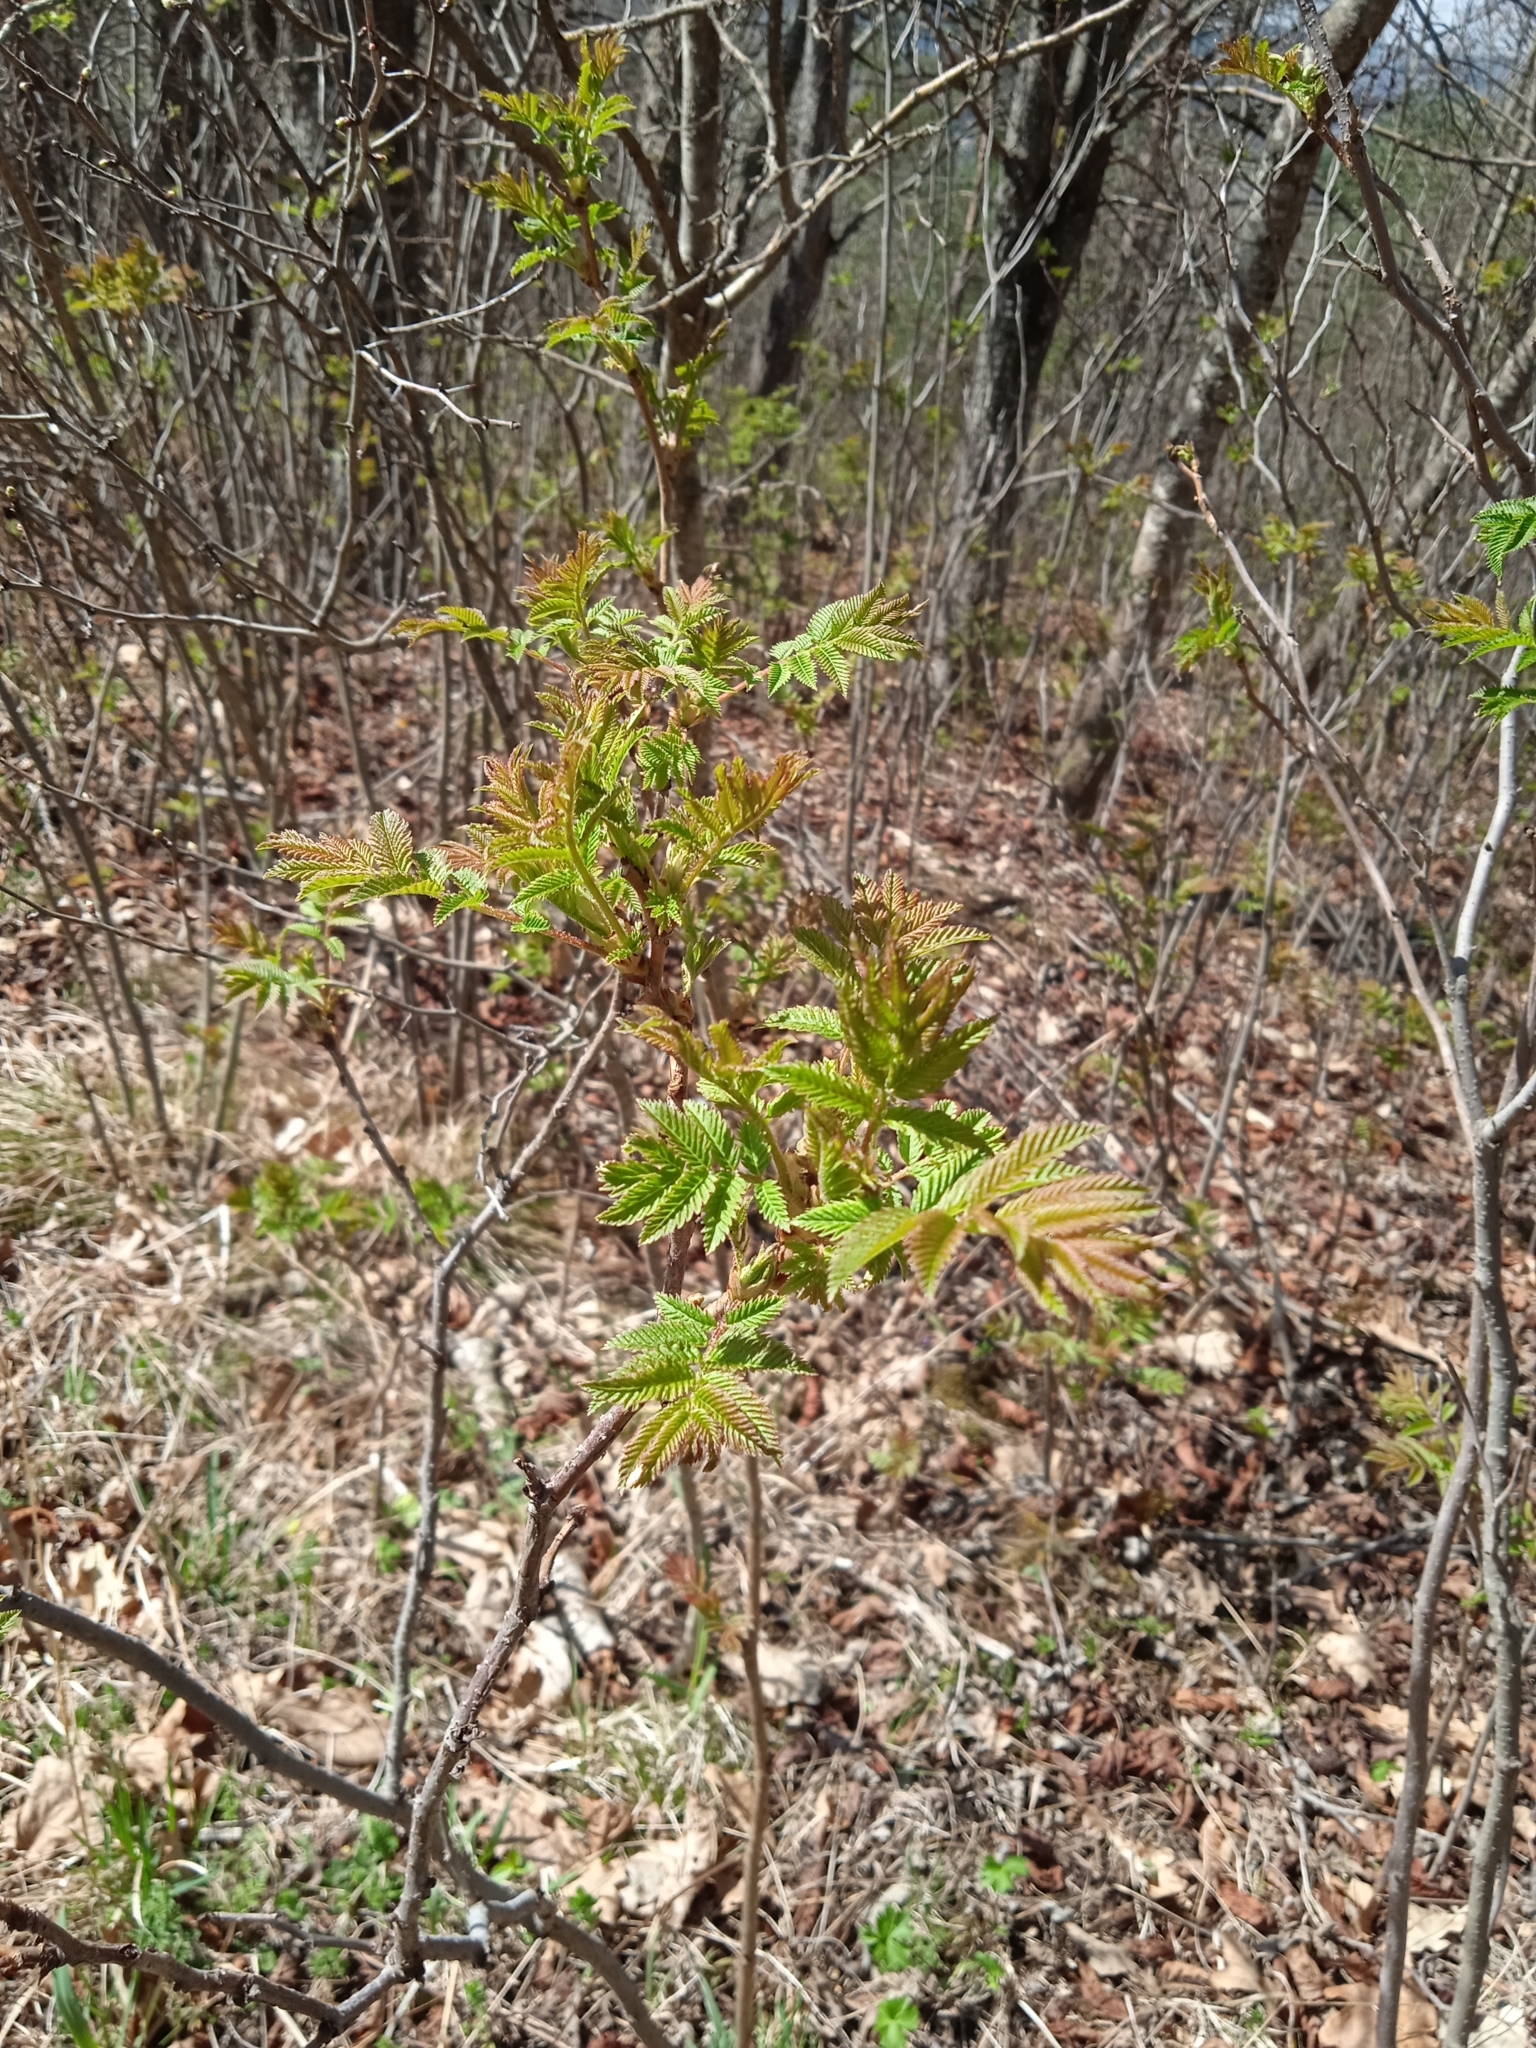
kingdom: Plantae
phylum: Tracheophyta
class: Magnoliopsida
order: Rosales
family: Rosaceae
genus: Sorbaria
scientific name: Sorbaria sorbifolia
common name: False spiraea
